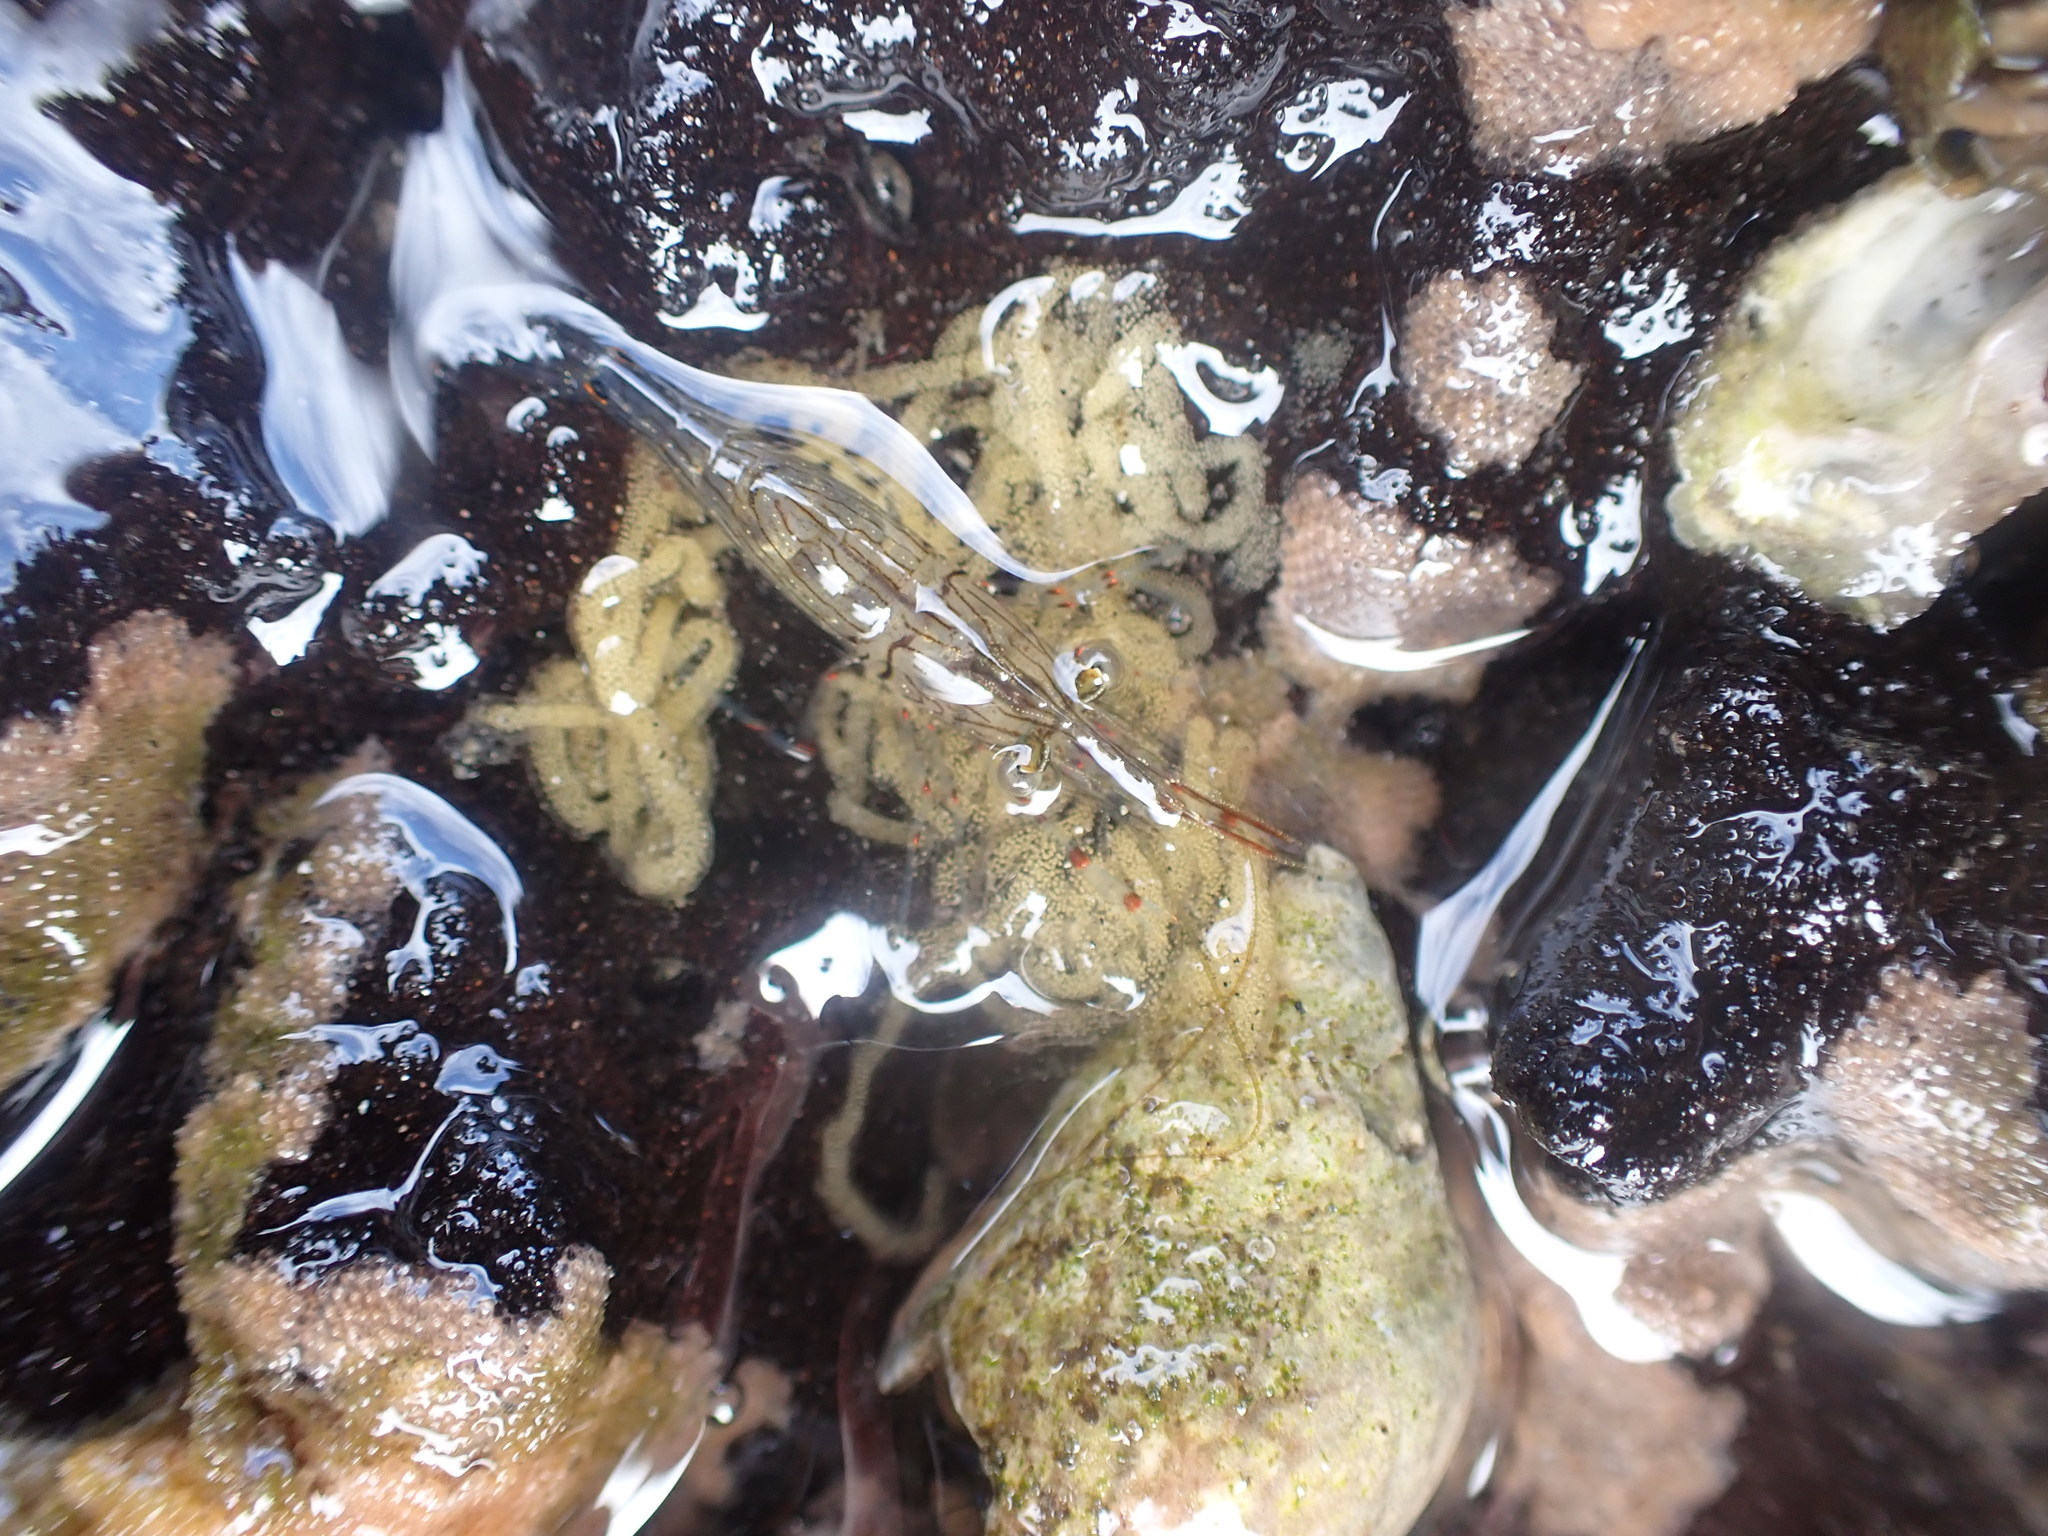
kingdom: Animalia
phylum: Arthropoda
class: Malacostraca
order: Decapoda
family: Palaemonidae
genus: Palaemon
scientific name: Palaemon affinis
